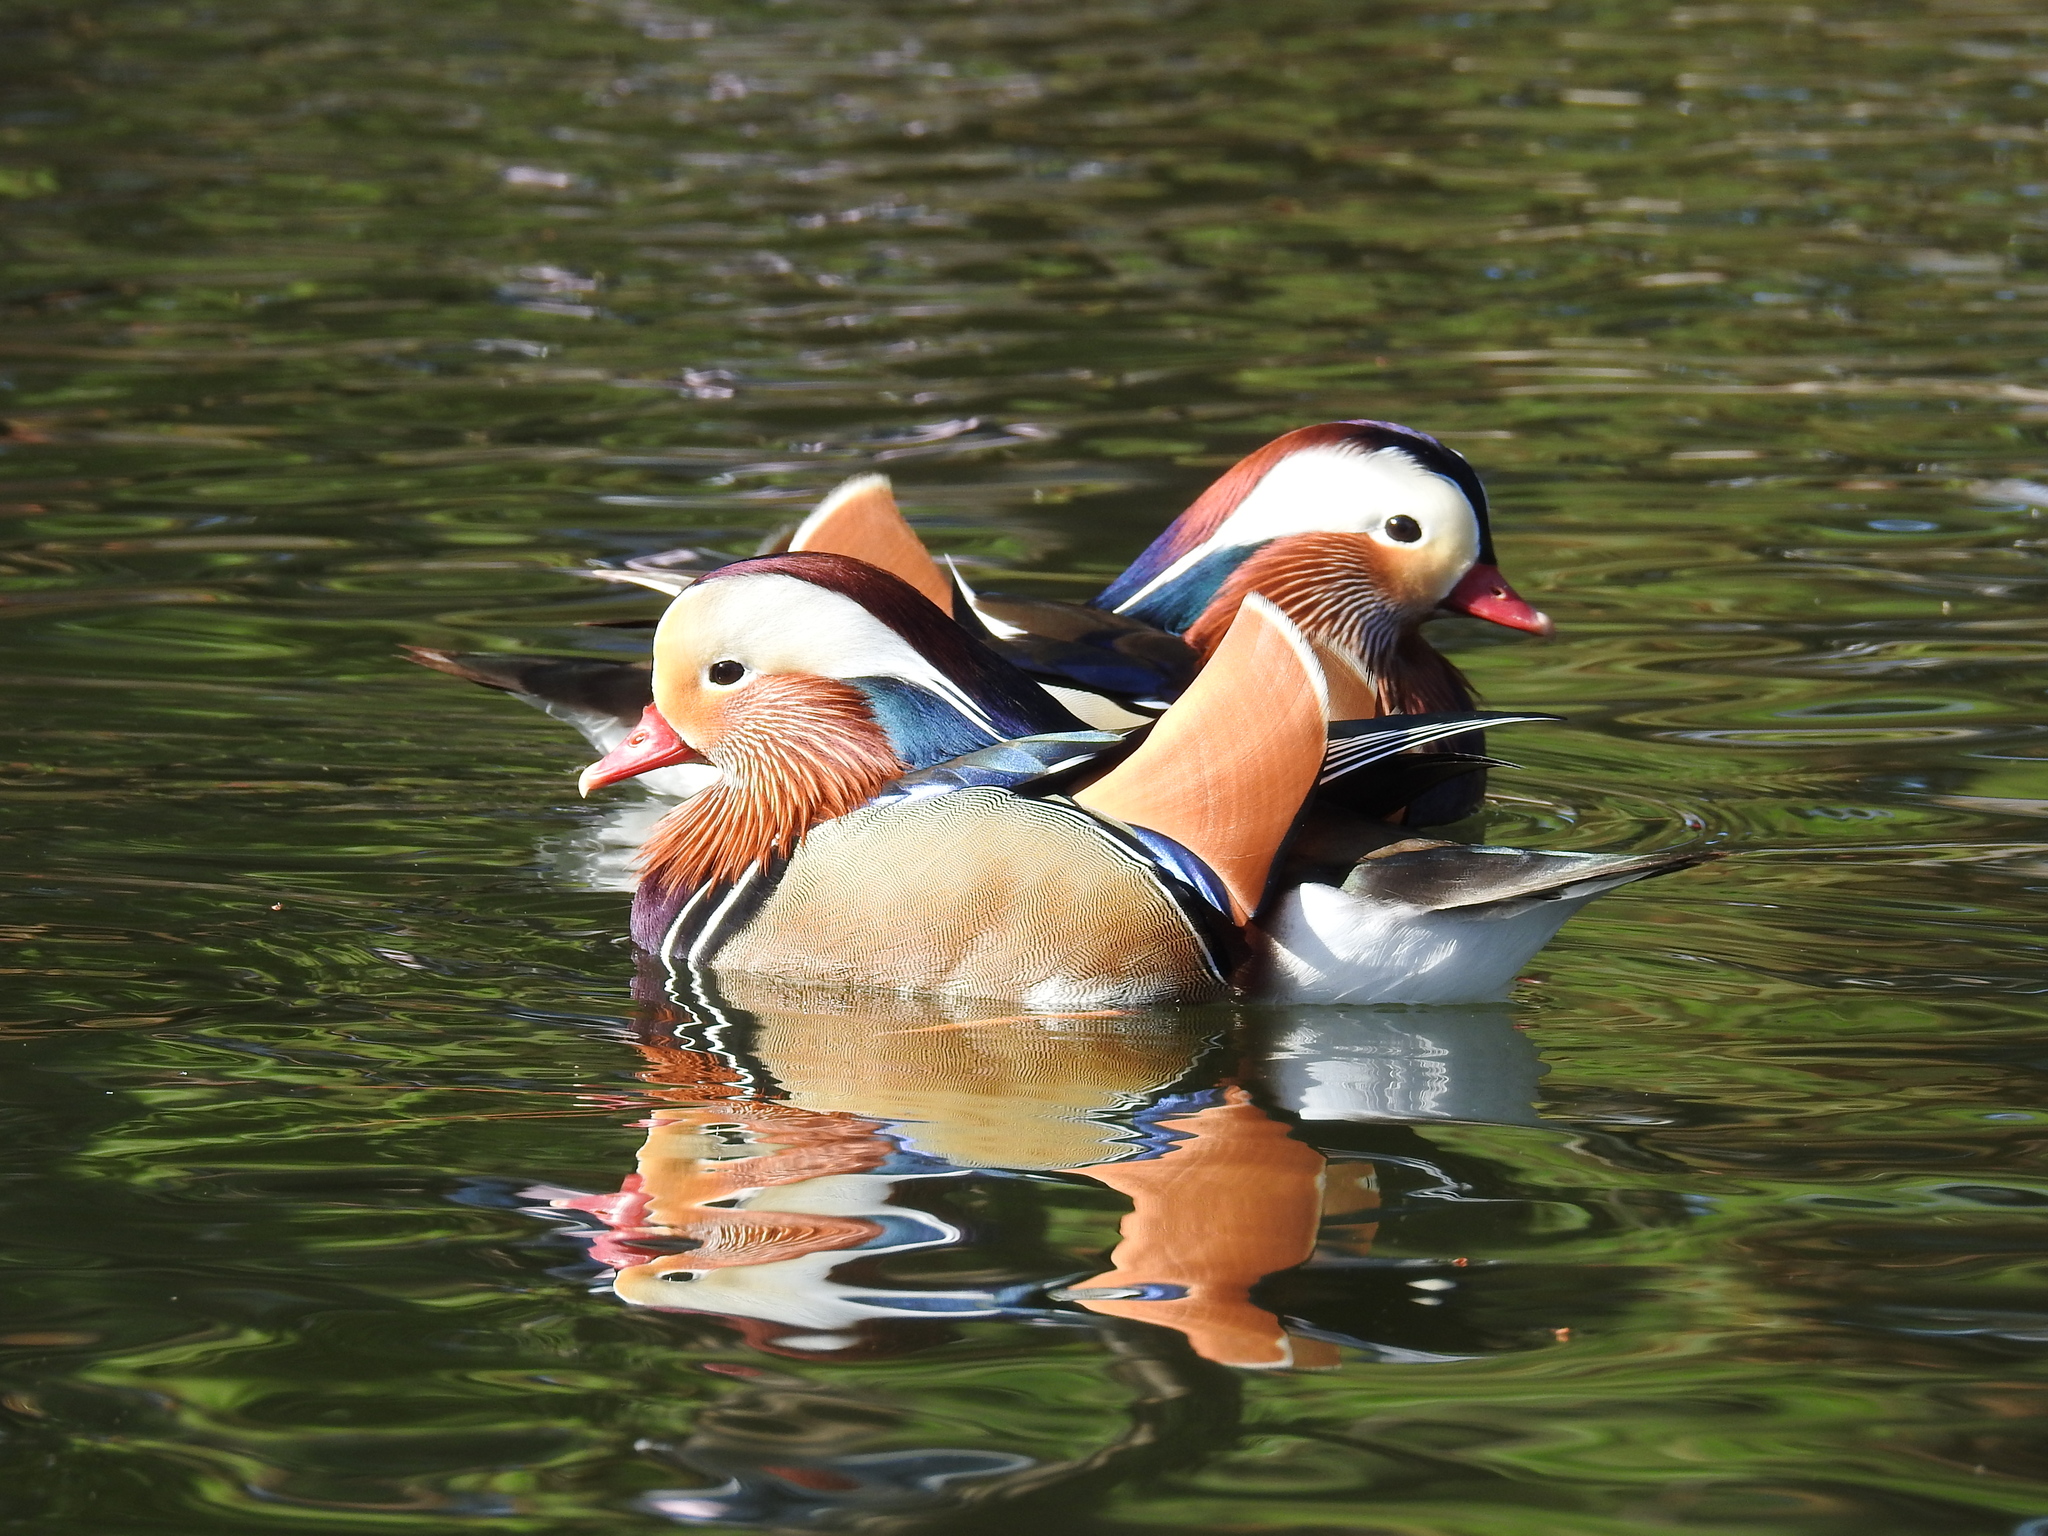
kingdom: Animalia
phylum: Chordata
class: Aves
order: Anseriformes
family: Anatidae
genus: Aix
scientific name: Aix galericulata
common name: Mandarin duck
